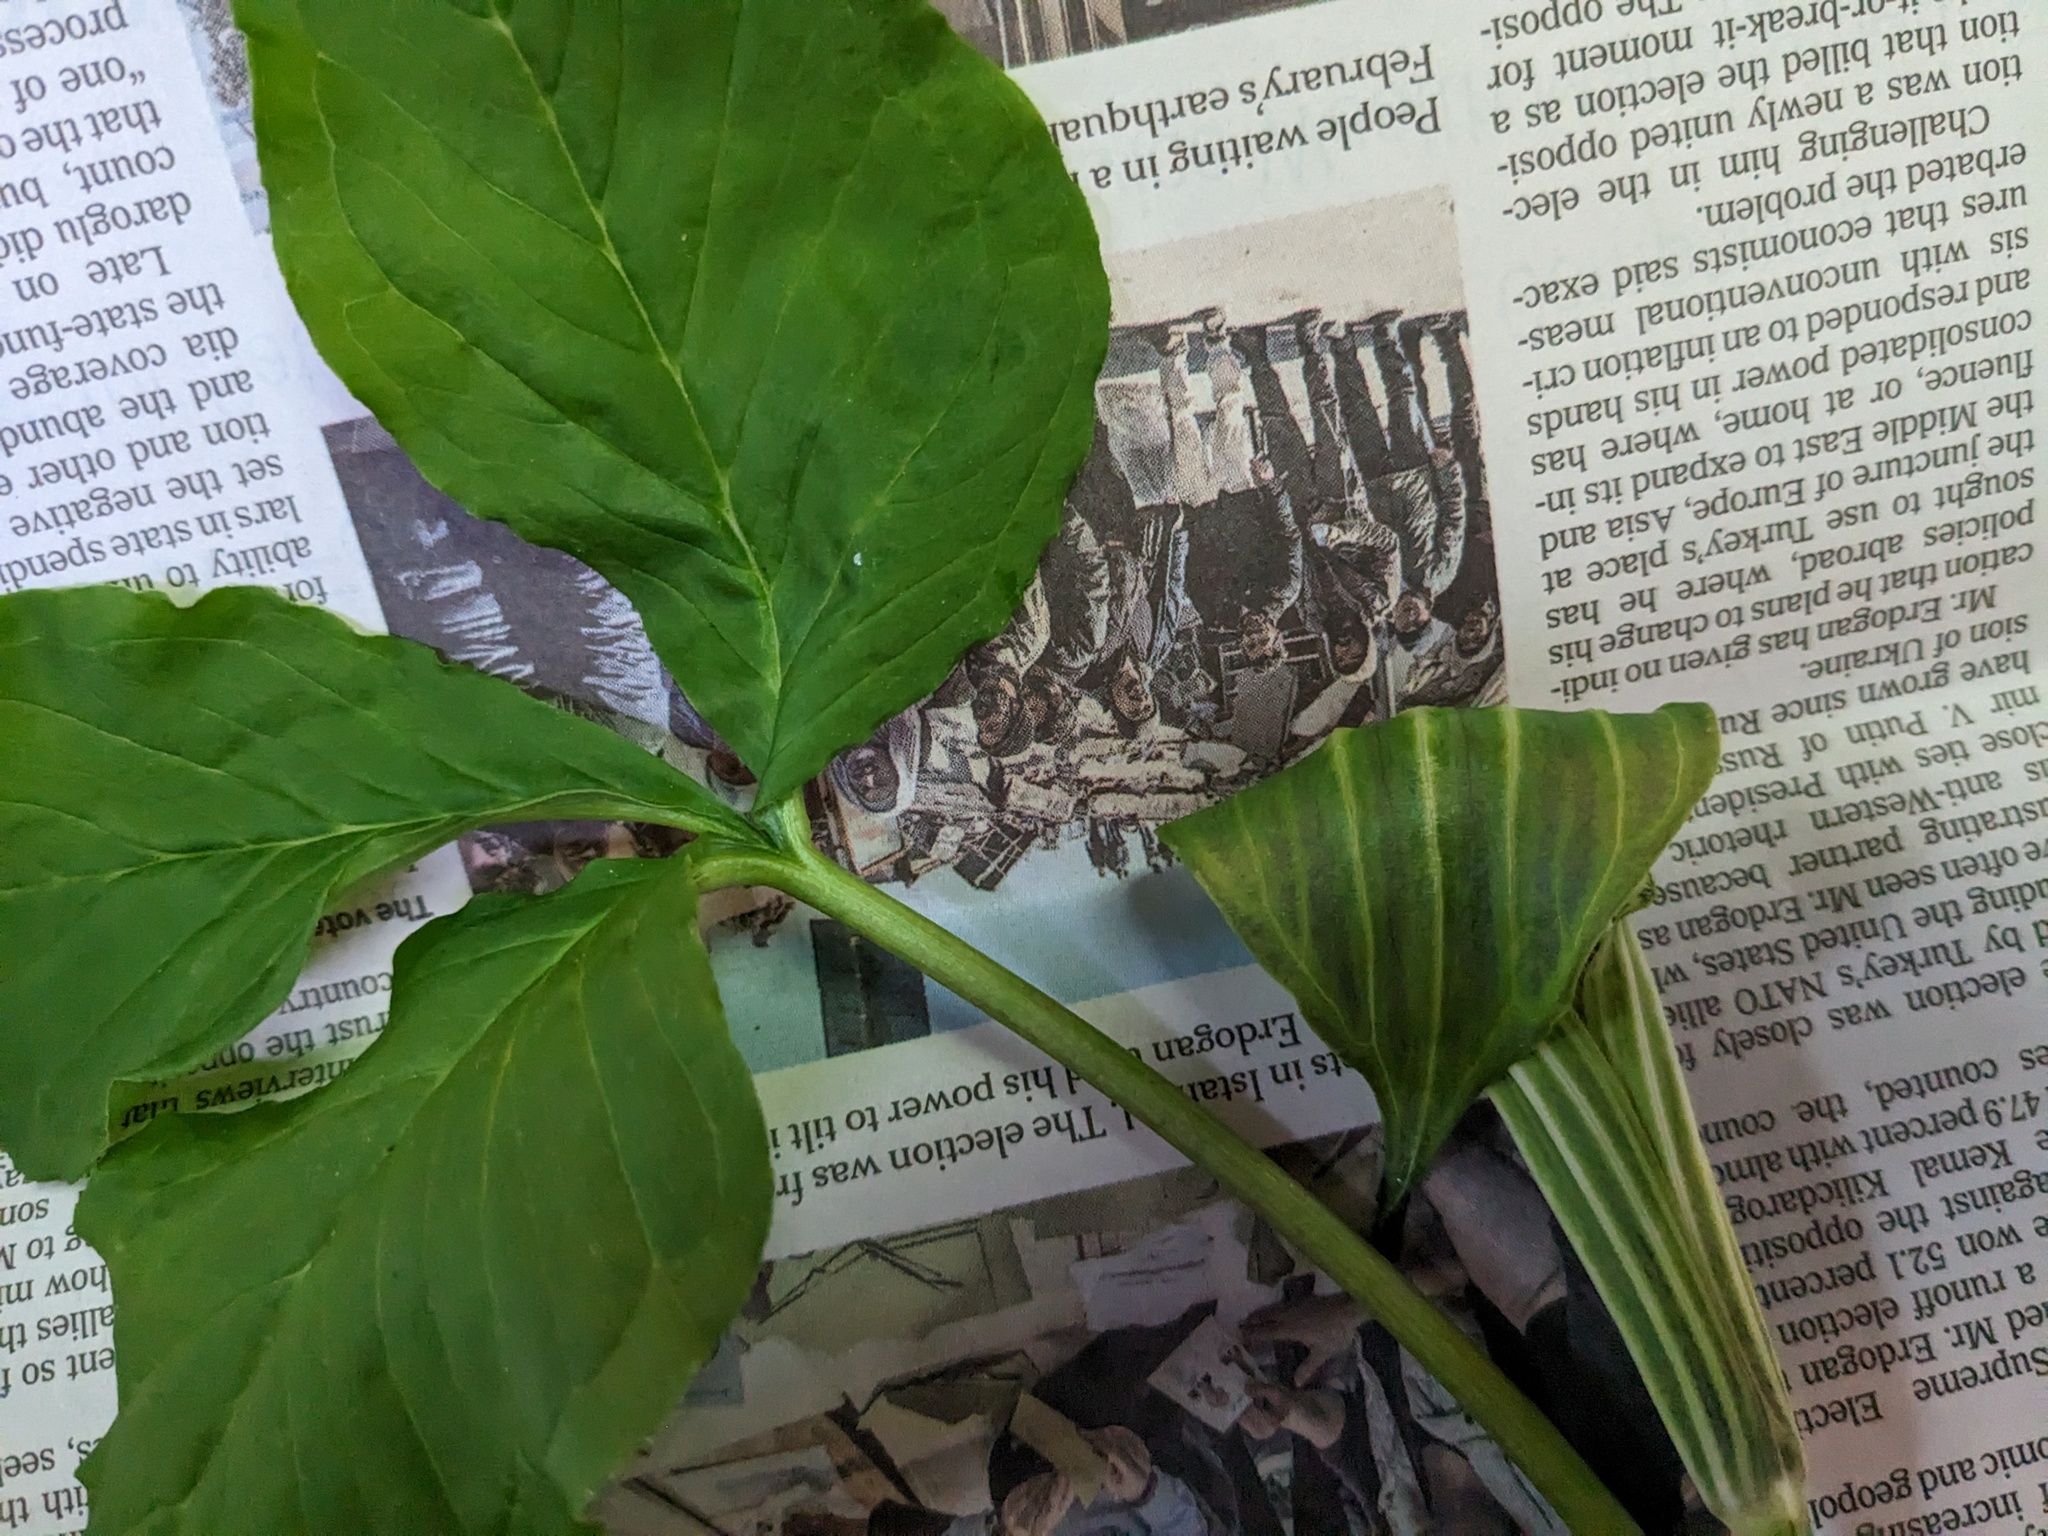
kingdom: Plantae
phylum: Tracheophyta
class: Liliopsida
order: Alismatales
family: Araceae
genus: Arisaema
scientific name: Arisaema stewardsonii
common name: Swamp jack-in-the-pulpit
